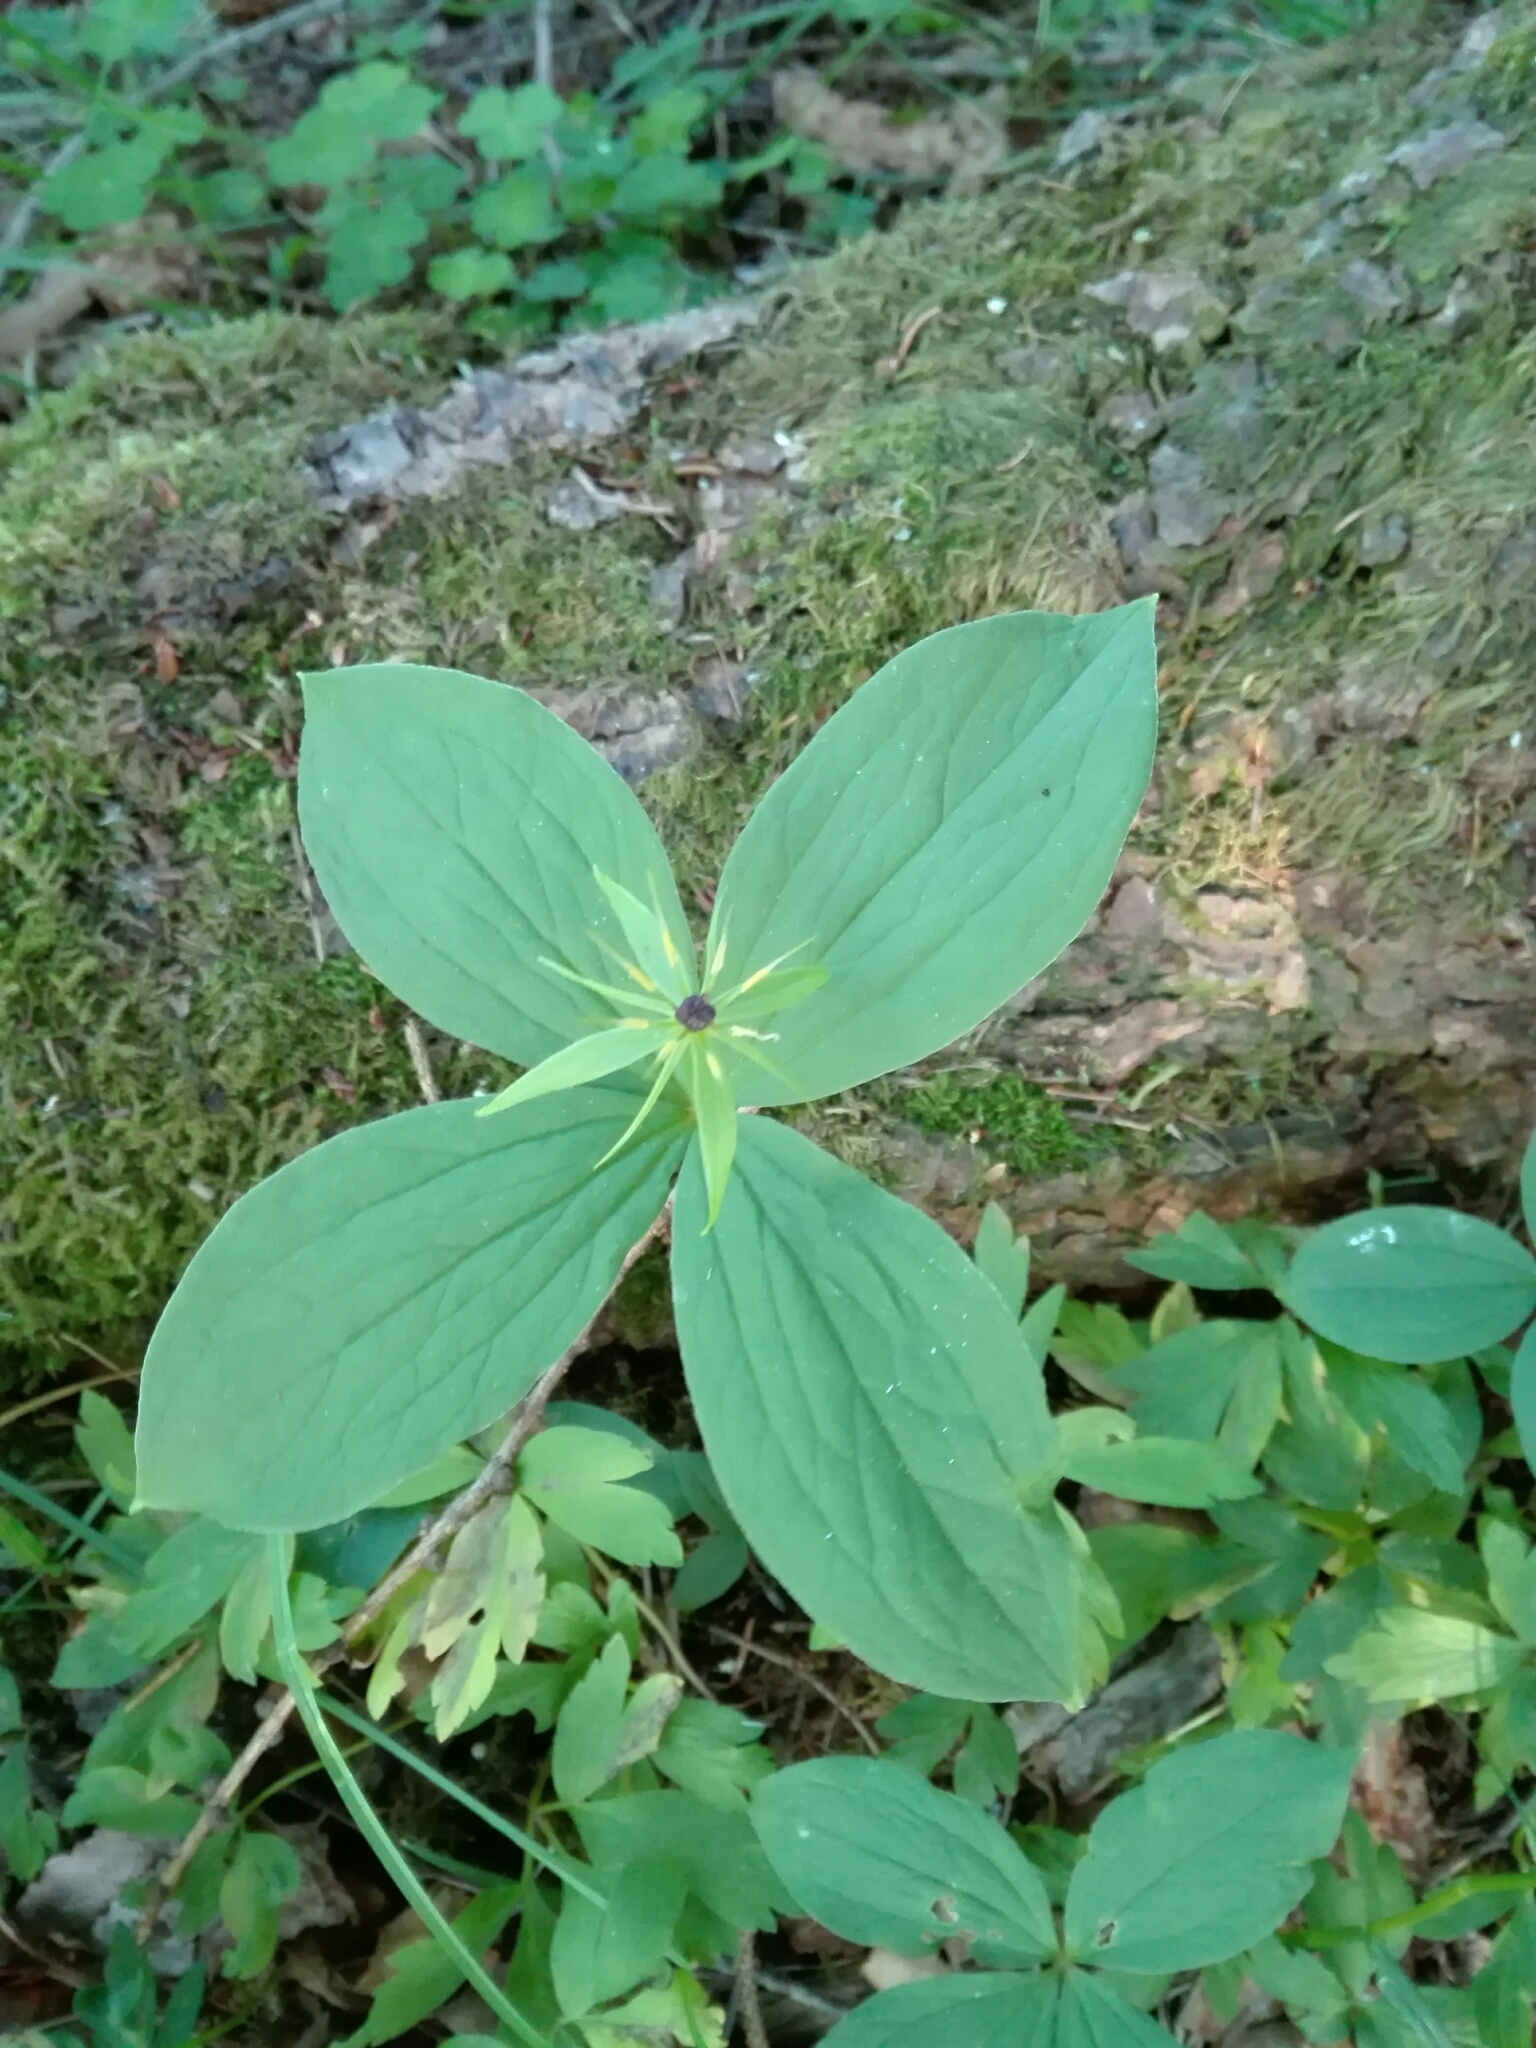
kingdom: Plantae
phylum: Tracheophyta
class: Liliopsida
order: Liliales
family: Melanthiaceae
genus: Paris
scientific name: Paris quadrifolia
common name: Herb-paris
